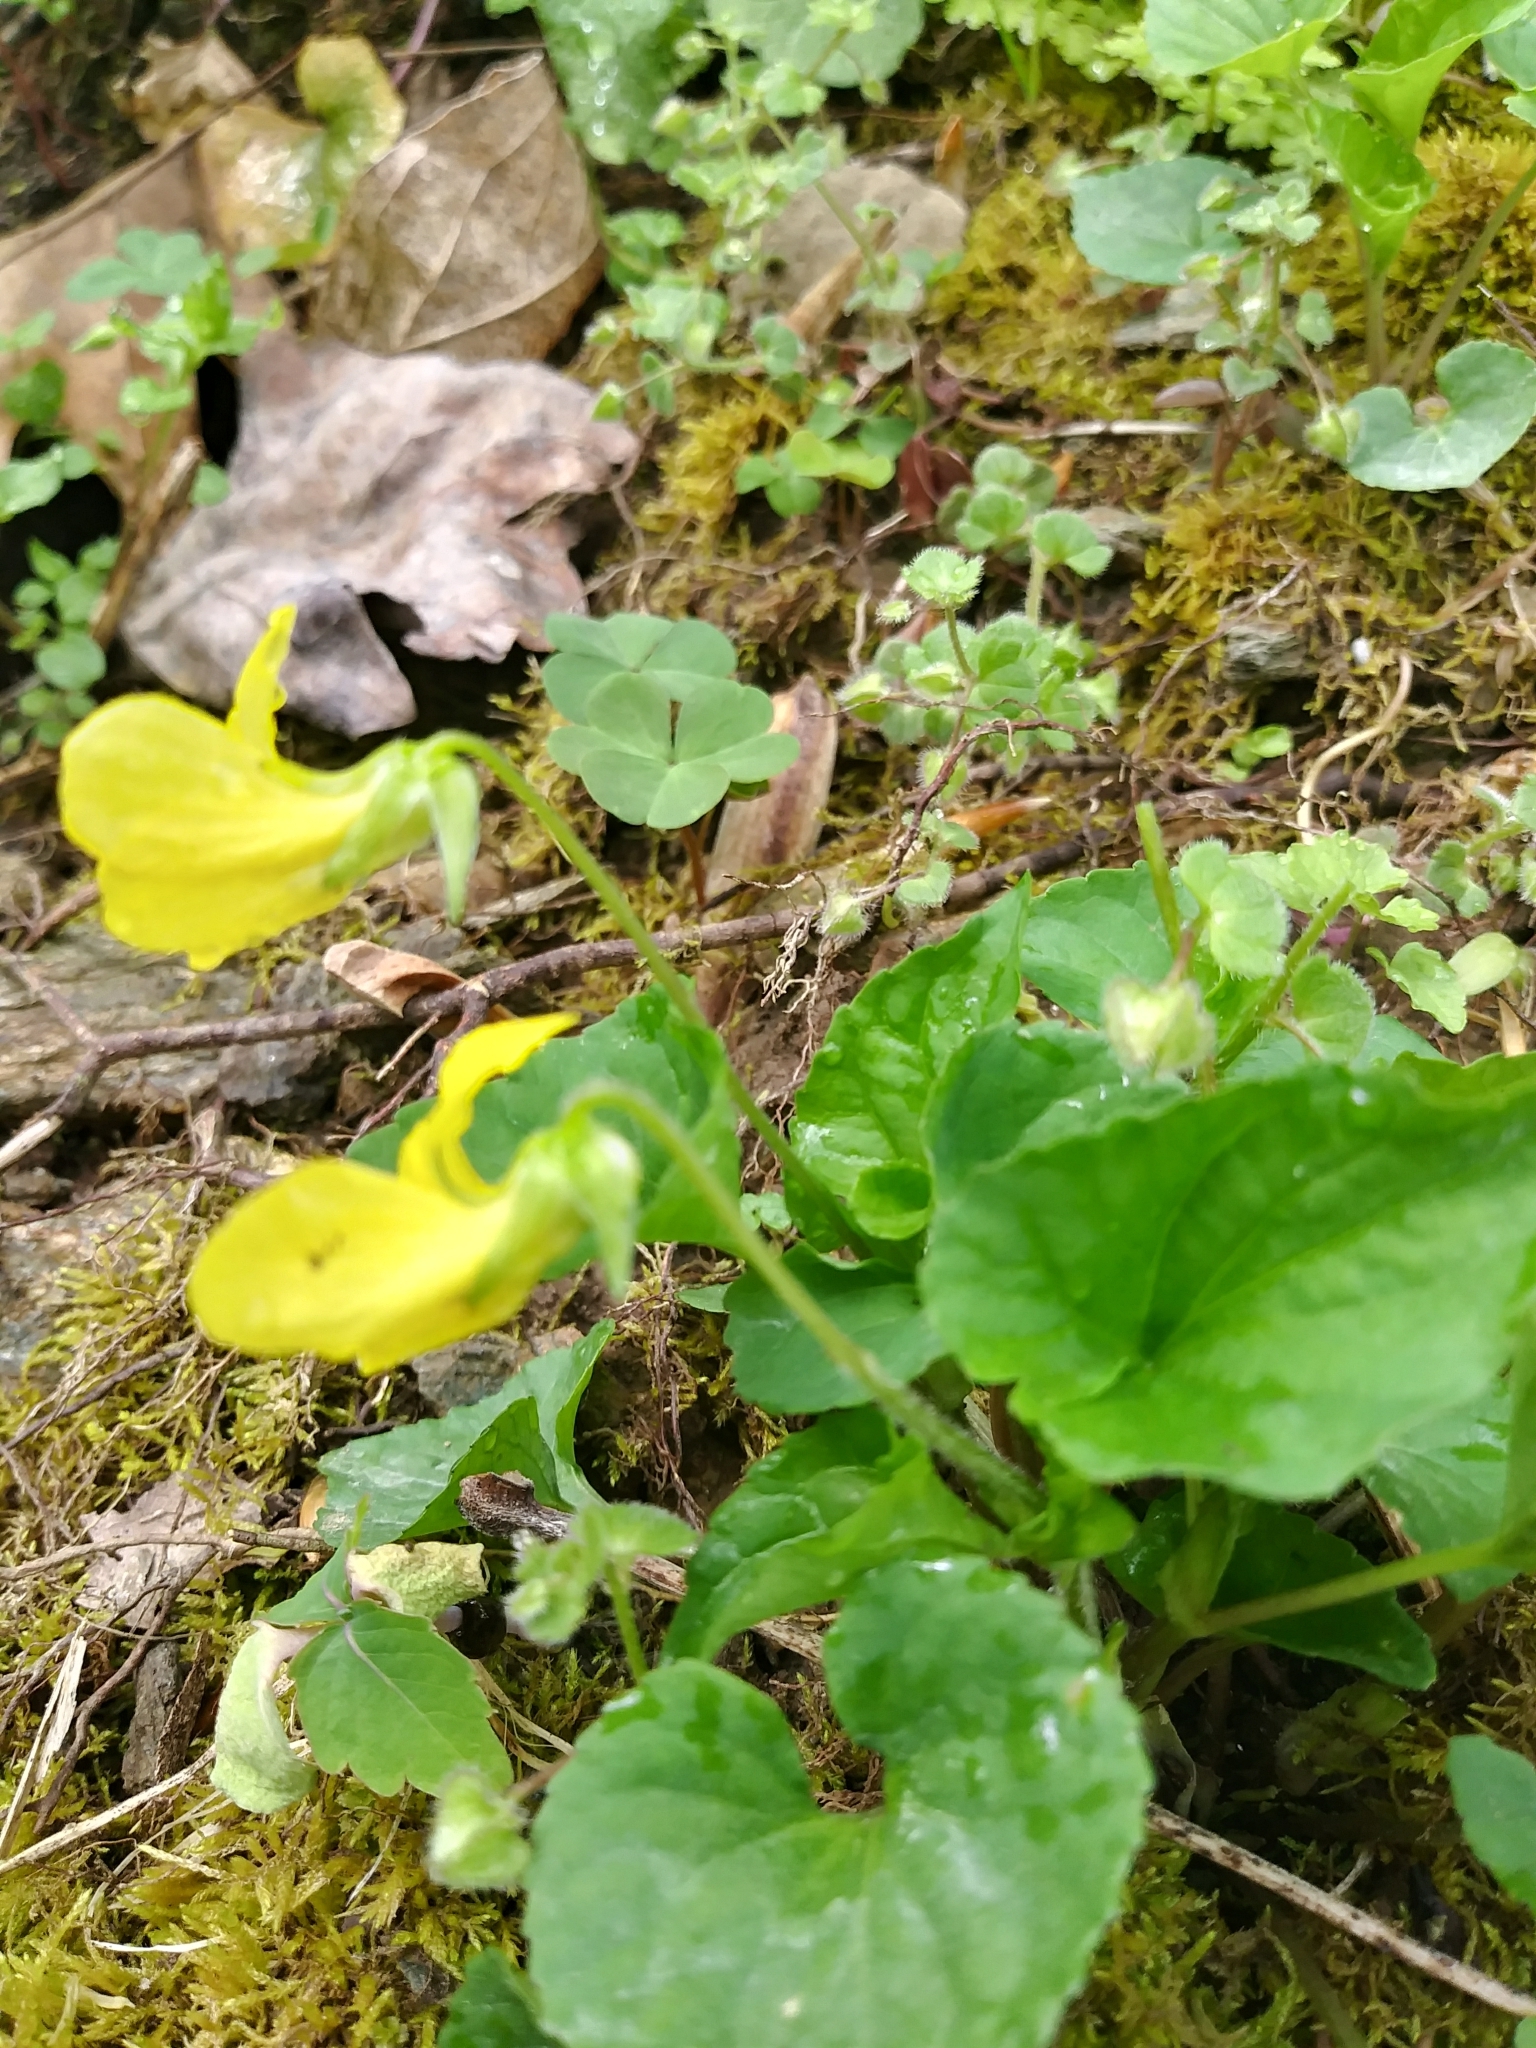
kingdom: Plantae
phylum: Tracheophyta
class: Magnoliopsida
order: Malpighiales
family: Violaceae
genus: Viola
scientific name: Viola eriocarpa
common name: Smooth yellow violet
